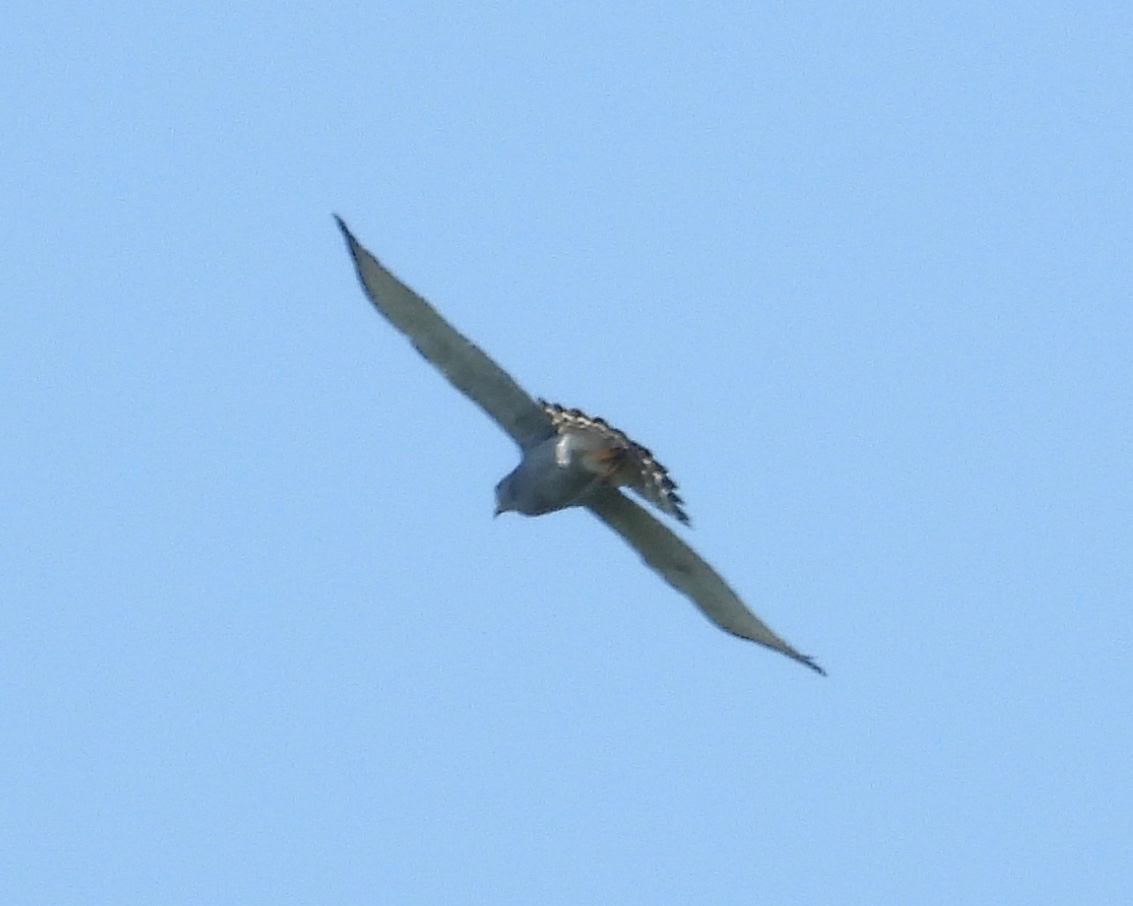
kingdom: Animalia
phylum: Chordata
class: Aves
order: Accipitriformes
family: Accipitridae
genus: Buteo
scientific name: Buteo nitidus
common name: Grey-lined hawk
